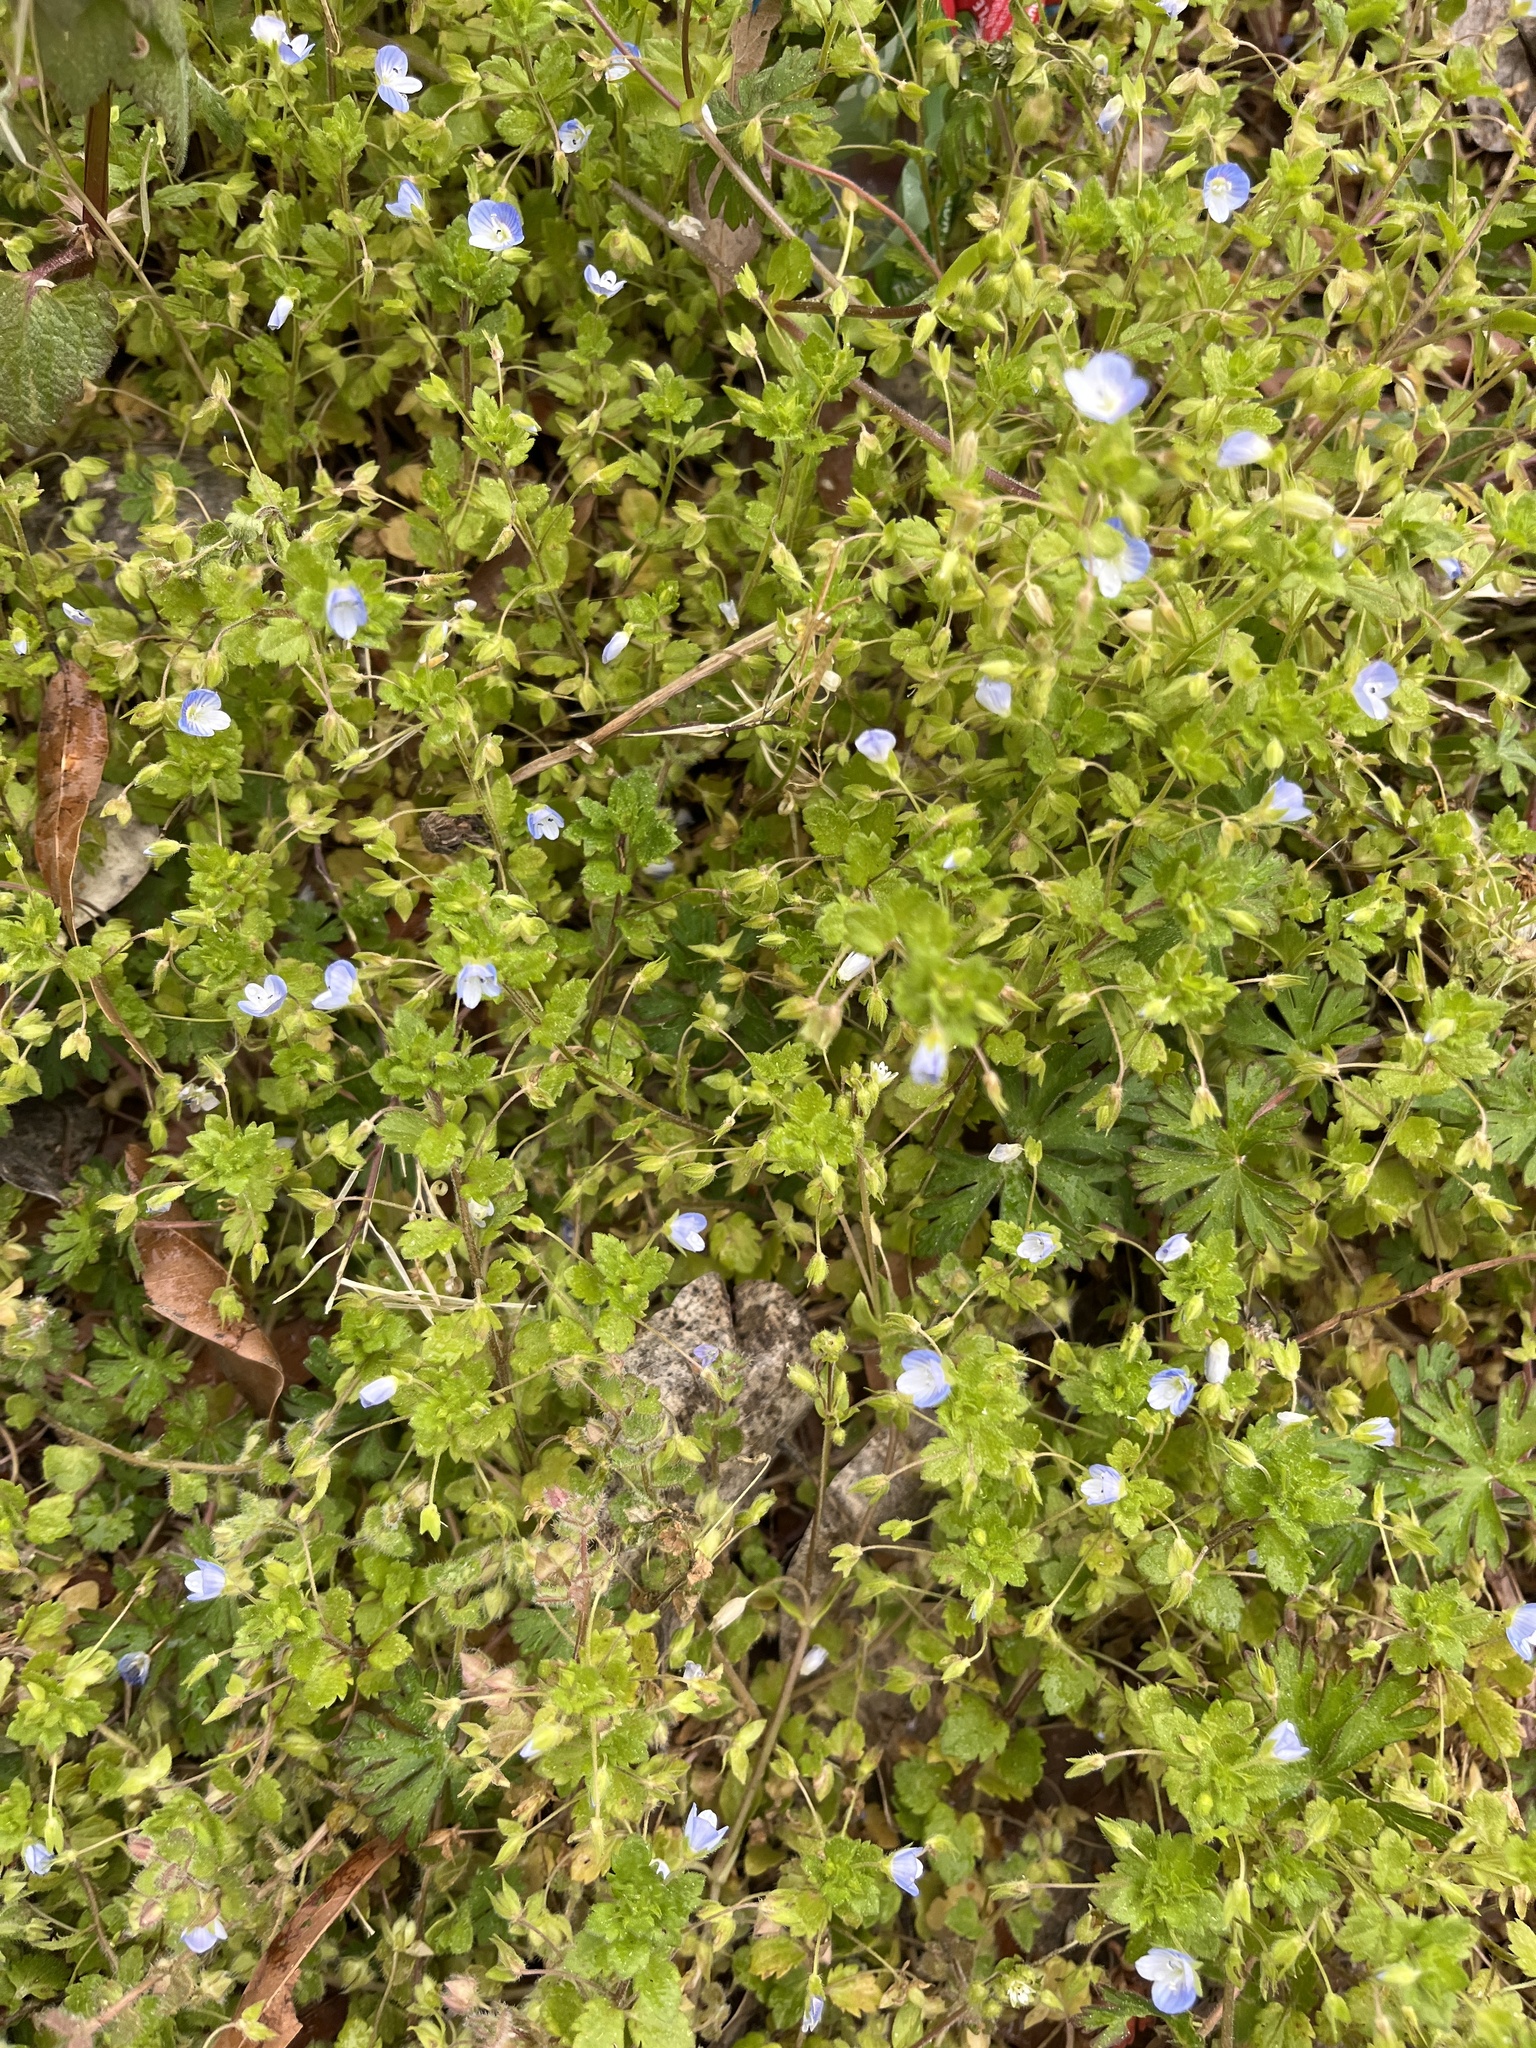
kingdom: Plantae
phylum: Tracheophyta
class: Magnoliopsida
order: Lamiales
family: Plantaginaceae
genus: Veronica
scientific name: Veronica persica
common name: Common field-speedwell
